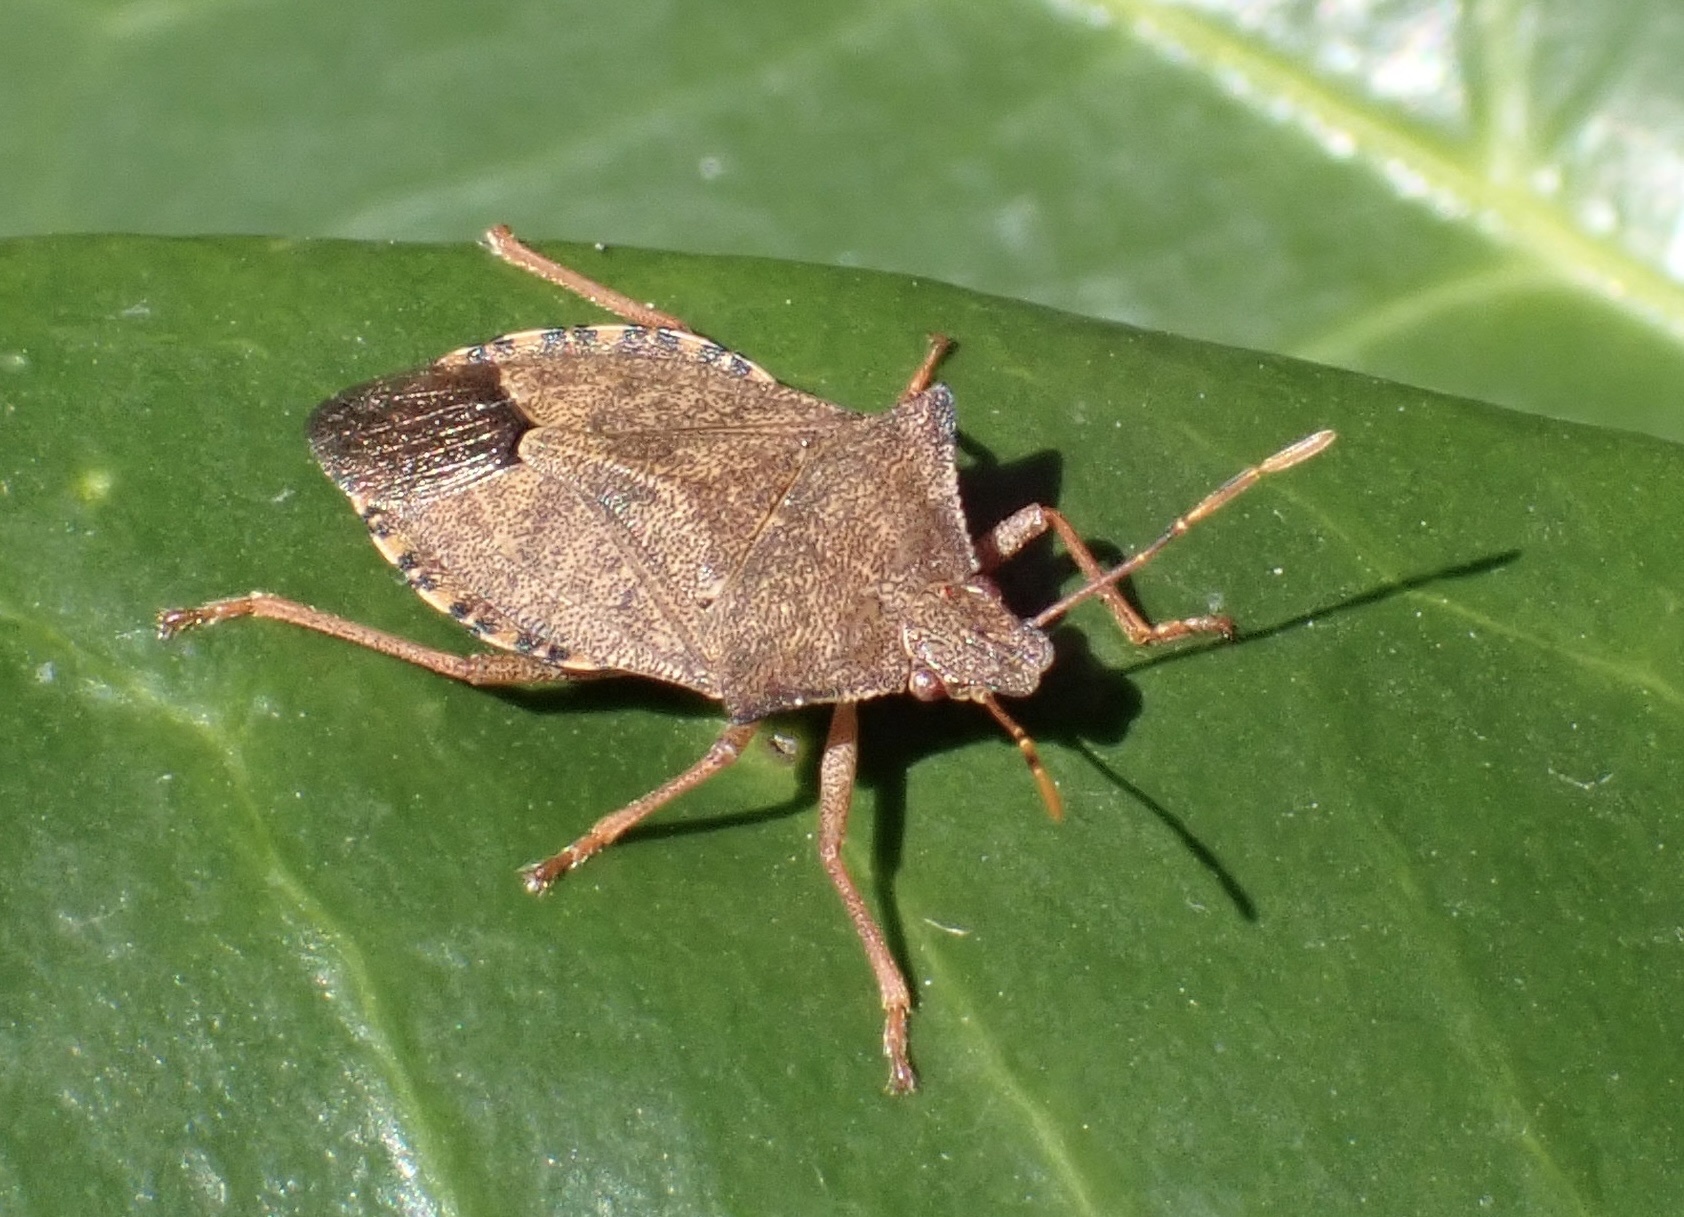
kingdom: Animalia
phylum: Arthropoda
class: Insecta
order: Hemiptera
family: Pentatomidae
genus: Arma
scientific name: Arma custos
